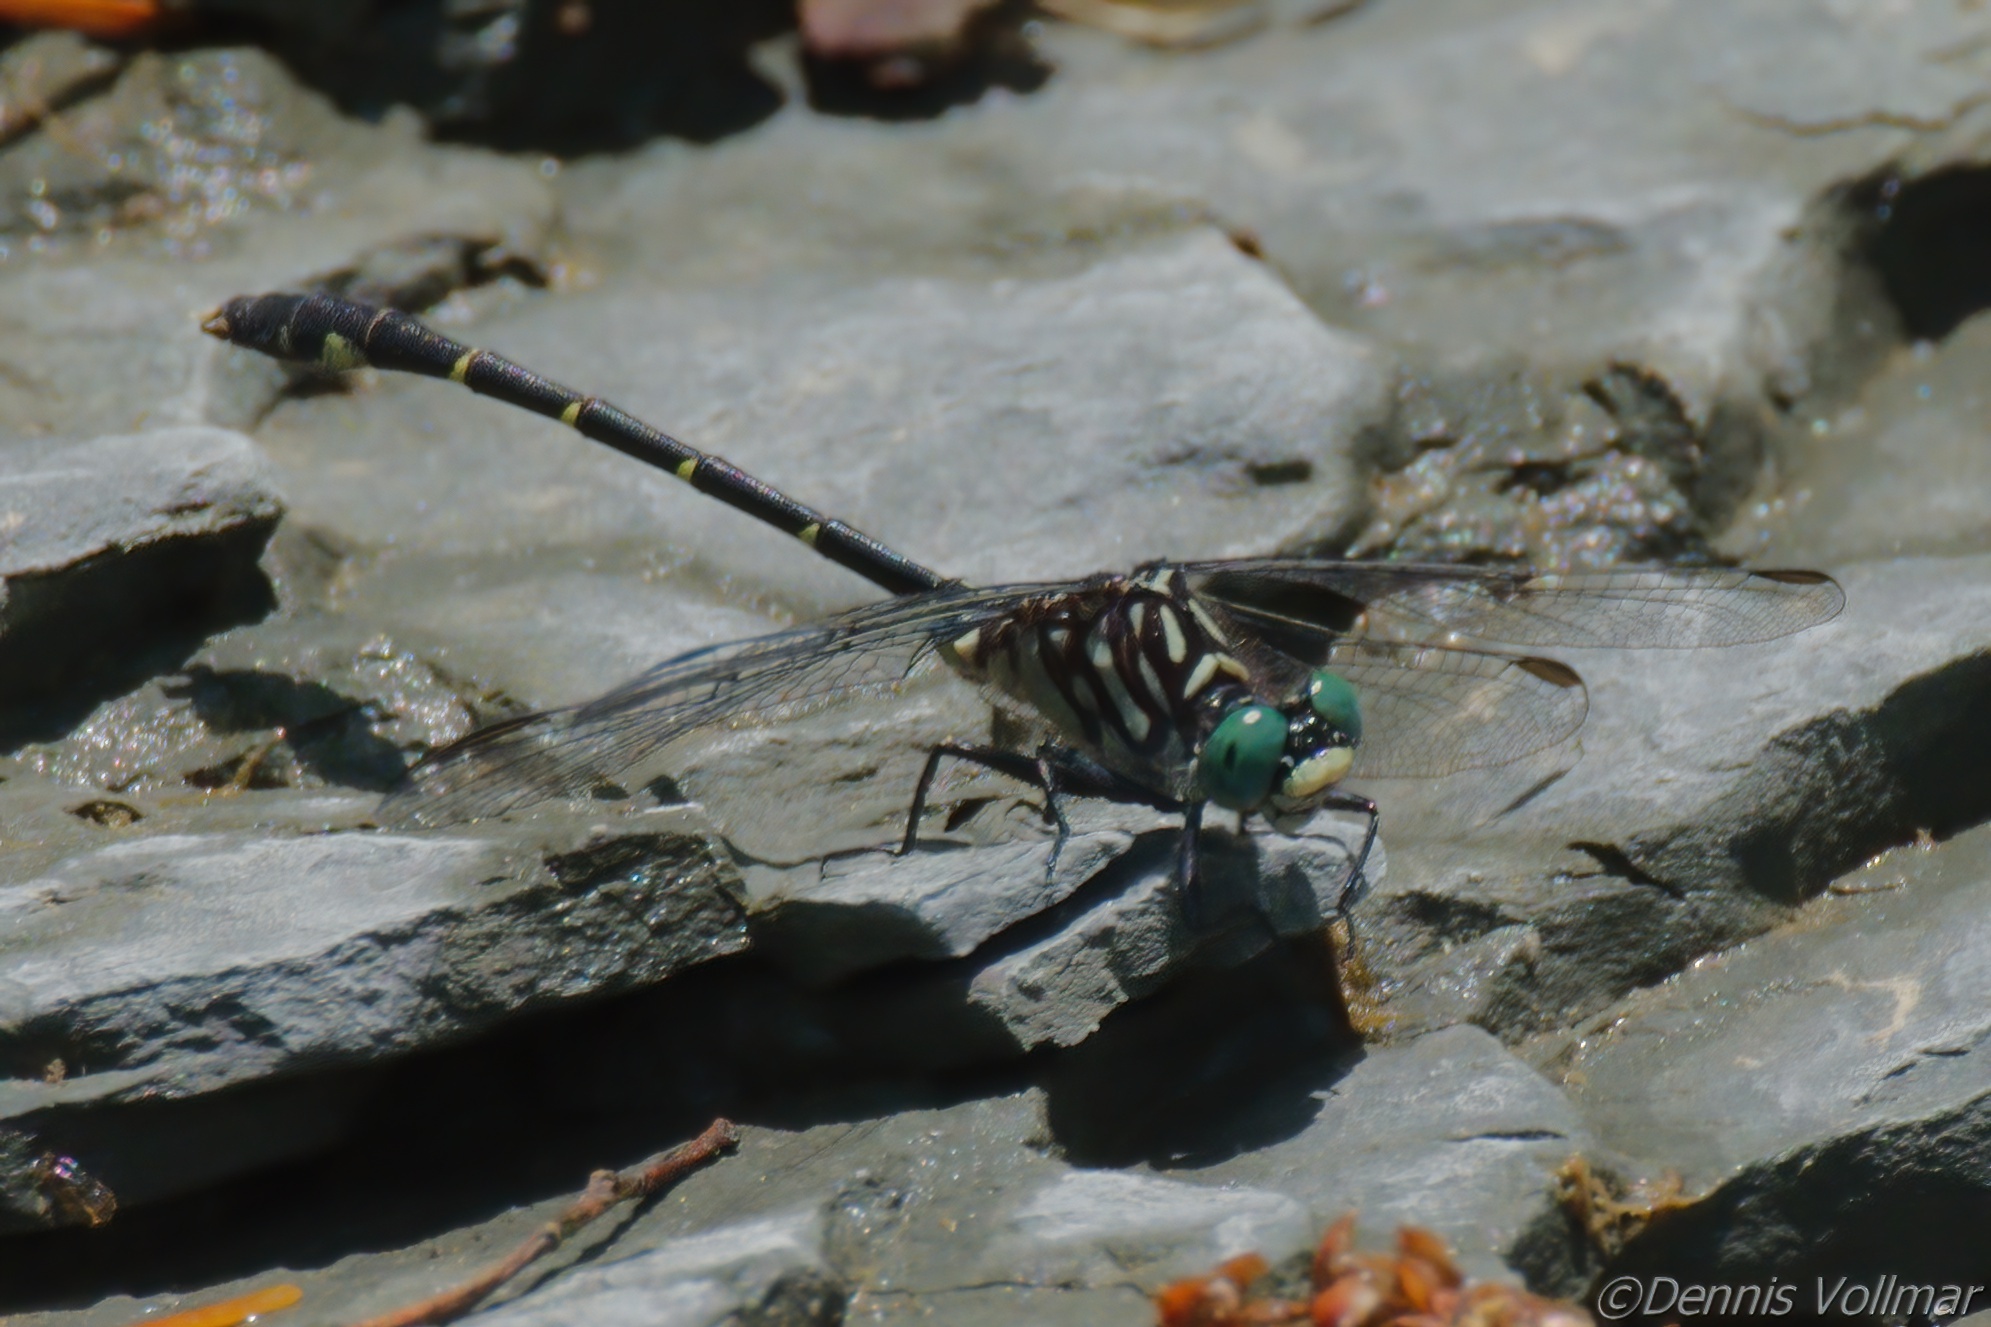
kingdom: Animalia
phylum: Arthropoda
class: Insecta
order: Odonata
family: Gomphidae
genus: Stylogomphus
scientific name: Stylogomphus albistylus
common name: Eastern least clubtail
